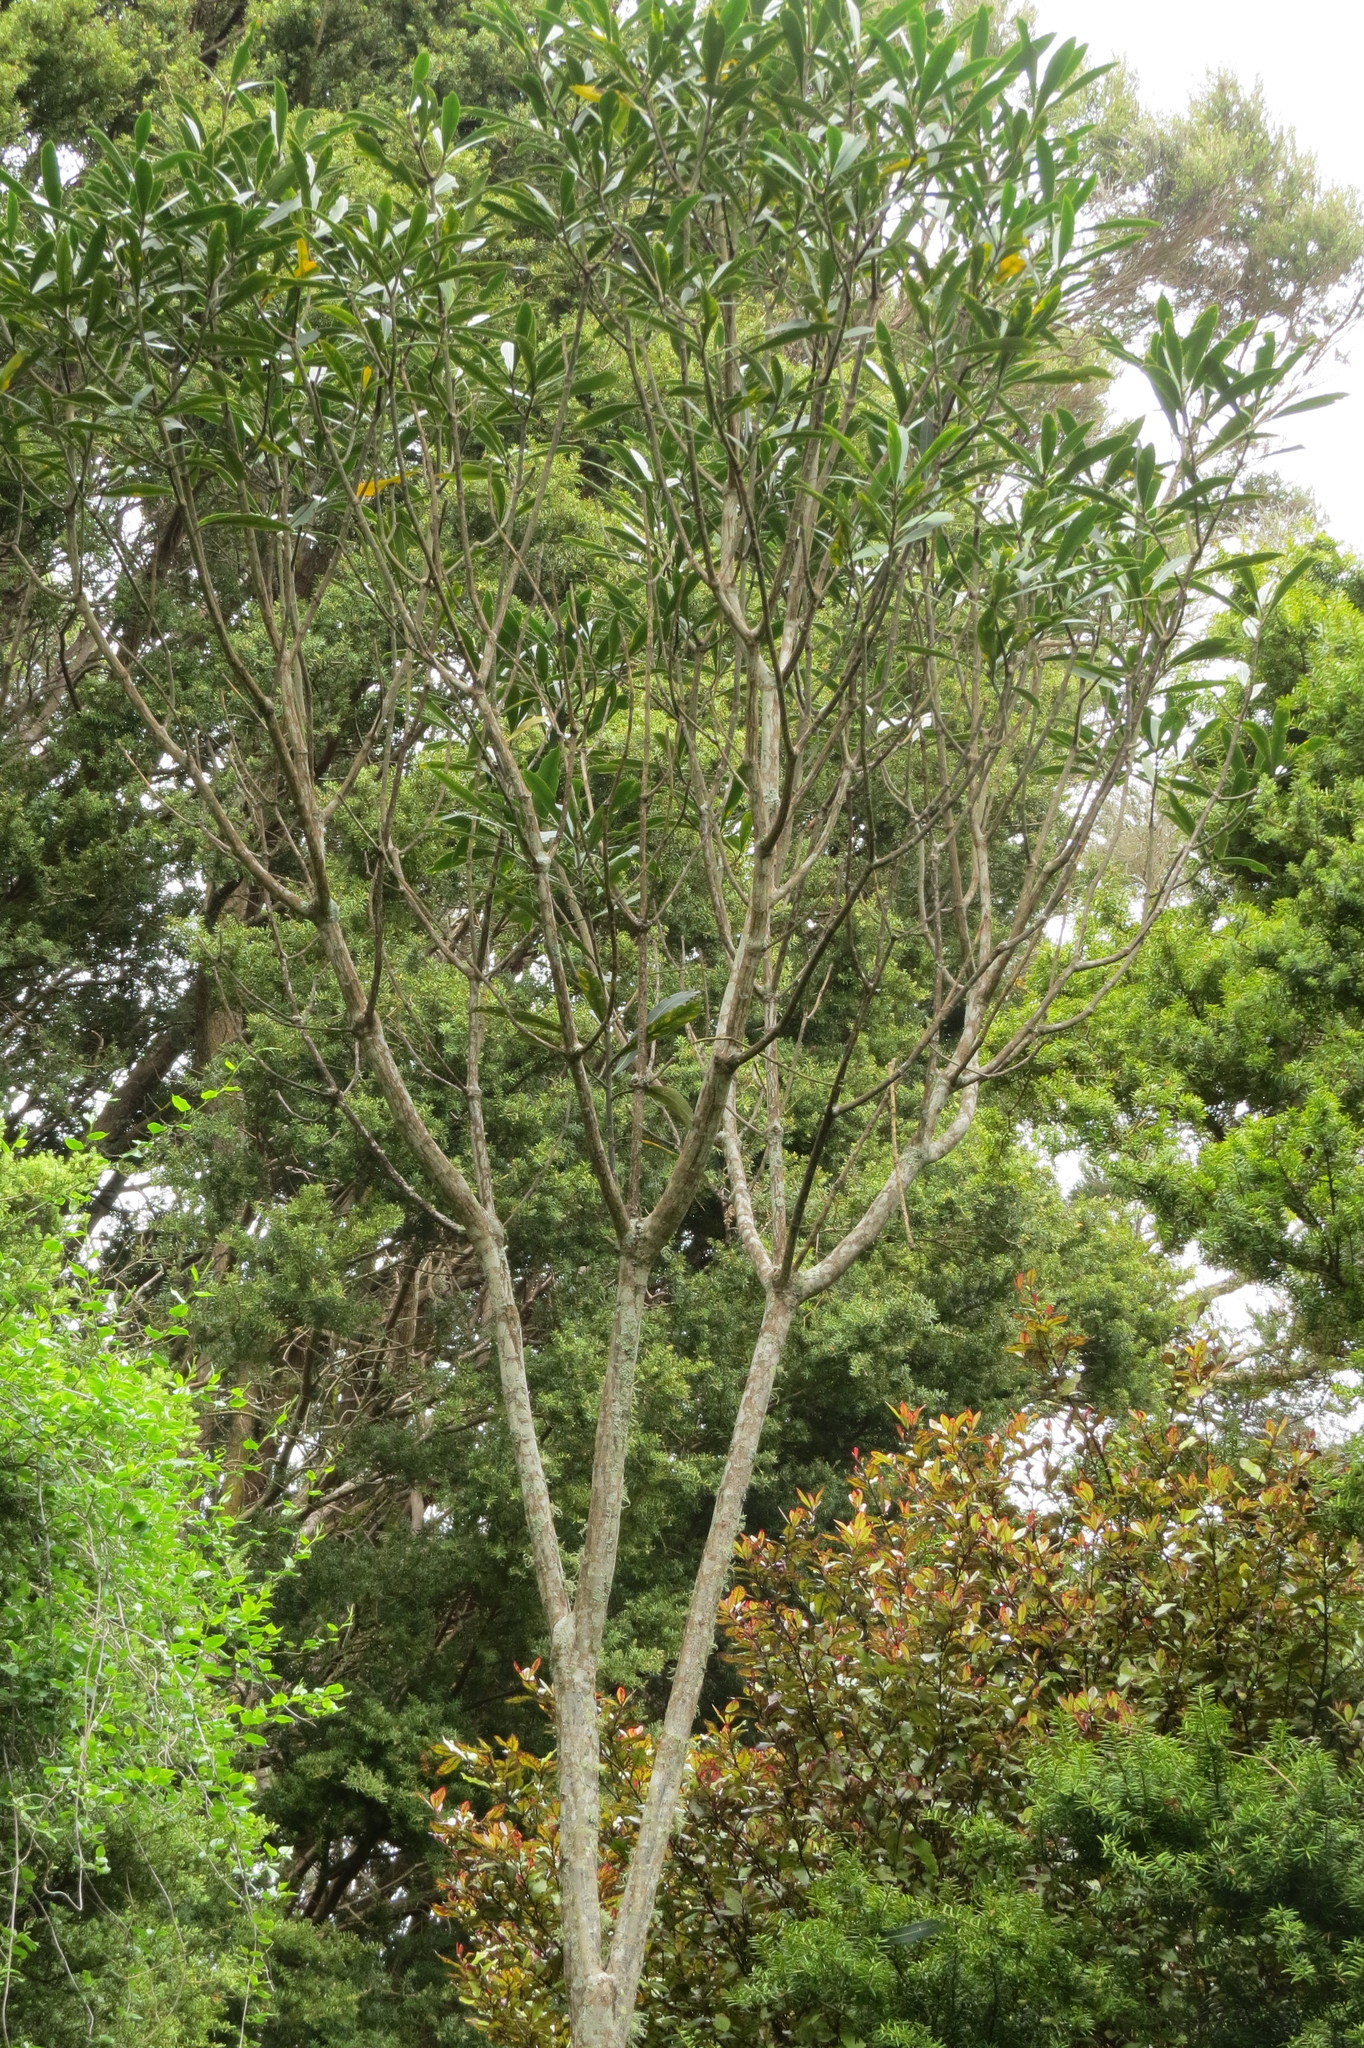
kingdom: Plantae
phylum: Tracheophyta
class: Magnoliopsida
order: Apiales
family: Araliaceae
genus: Pseudopanax
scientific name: Pseudopanax crassifolius
